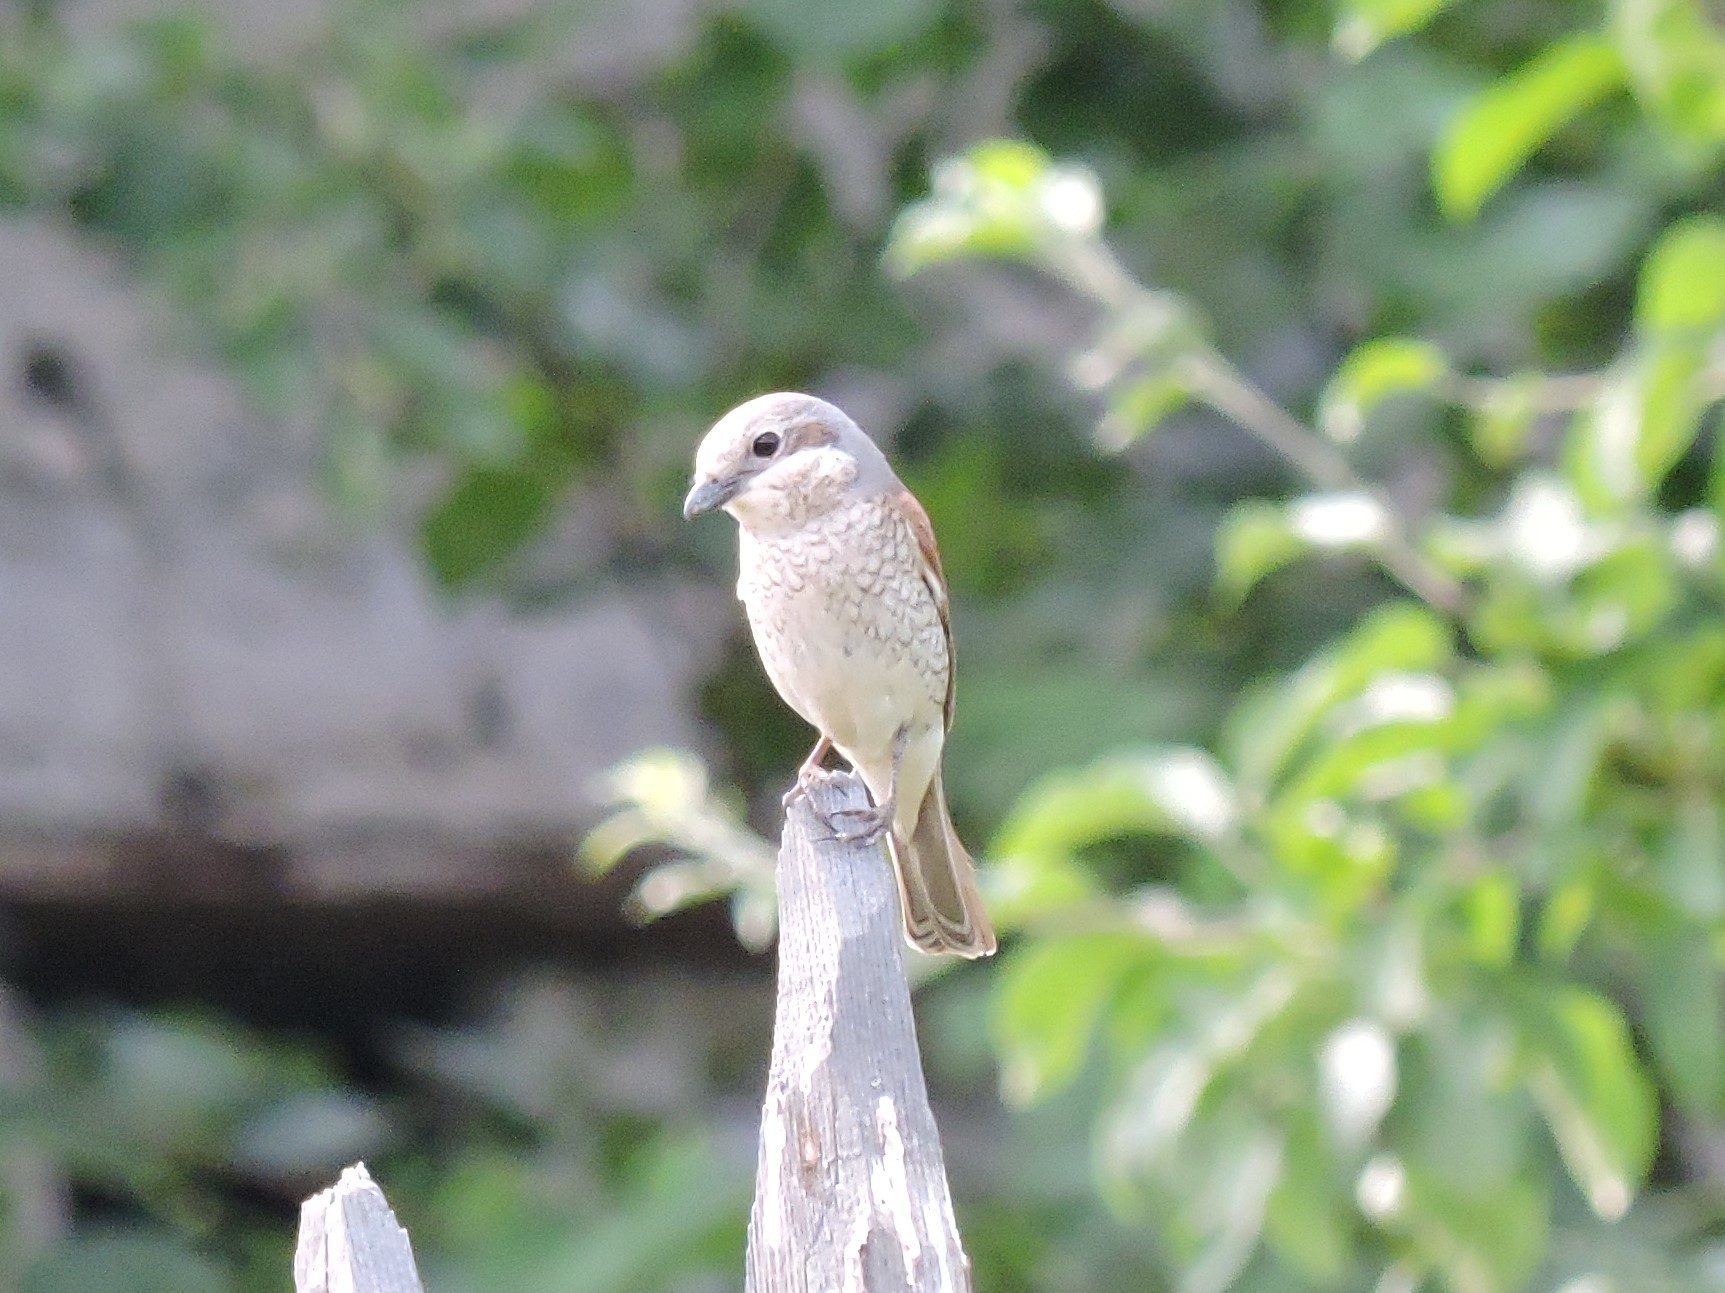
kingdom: Animalia
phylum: Chordata
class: Aves
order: Passeriformes
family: Laniidae
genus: Lanius
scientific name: Lanius collurio
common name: Red-backed shrike
